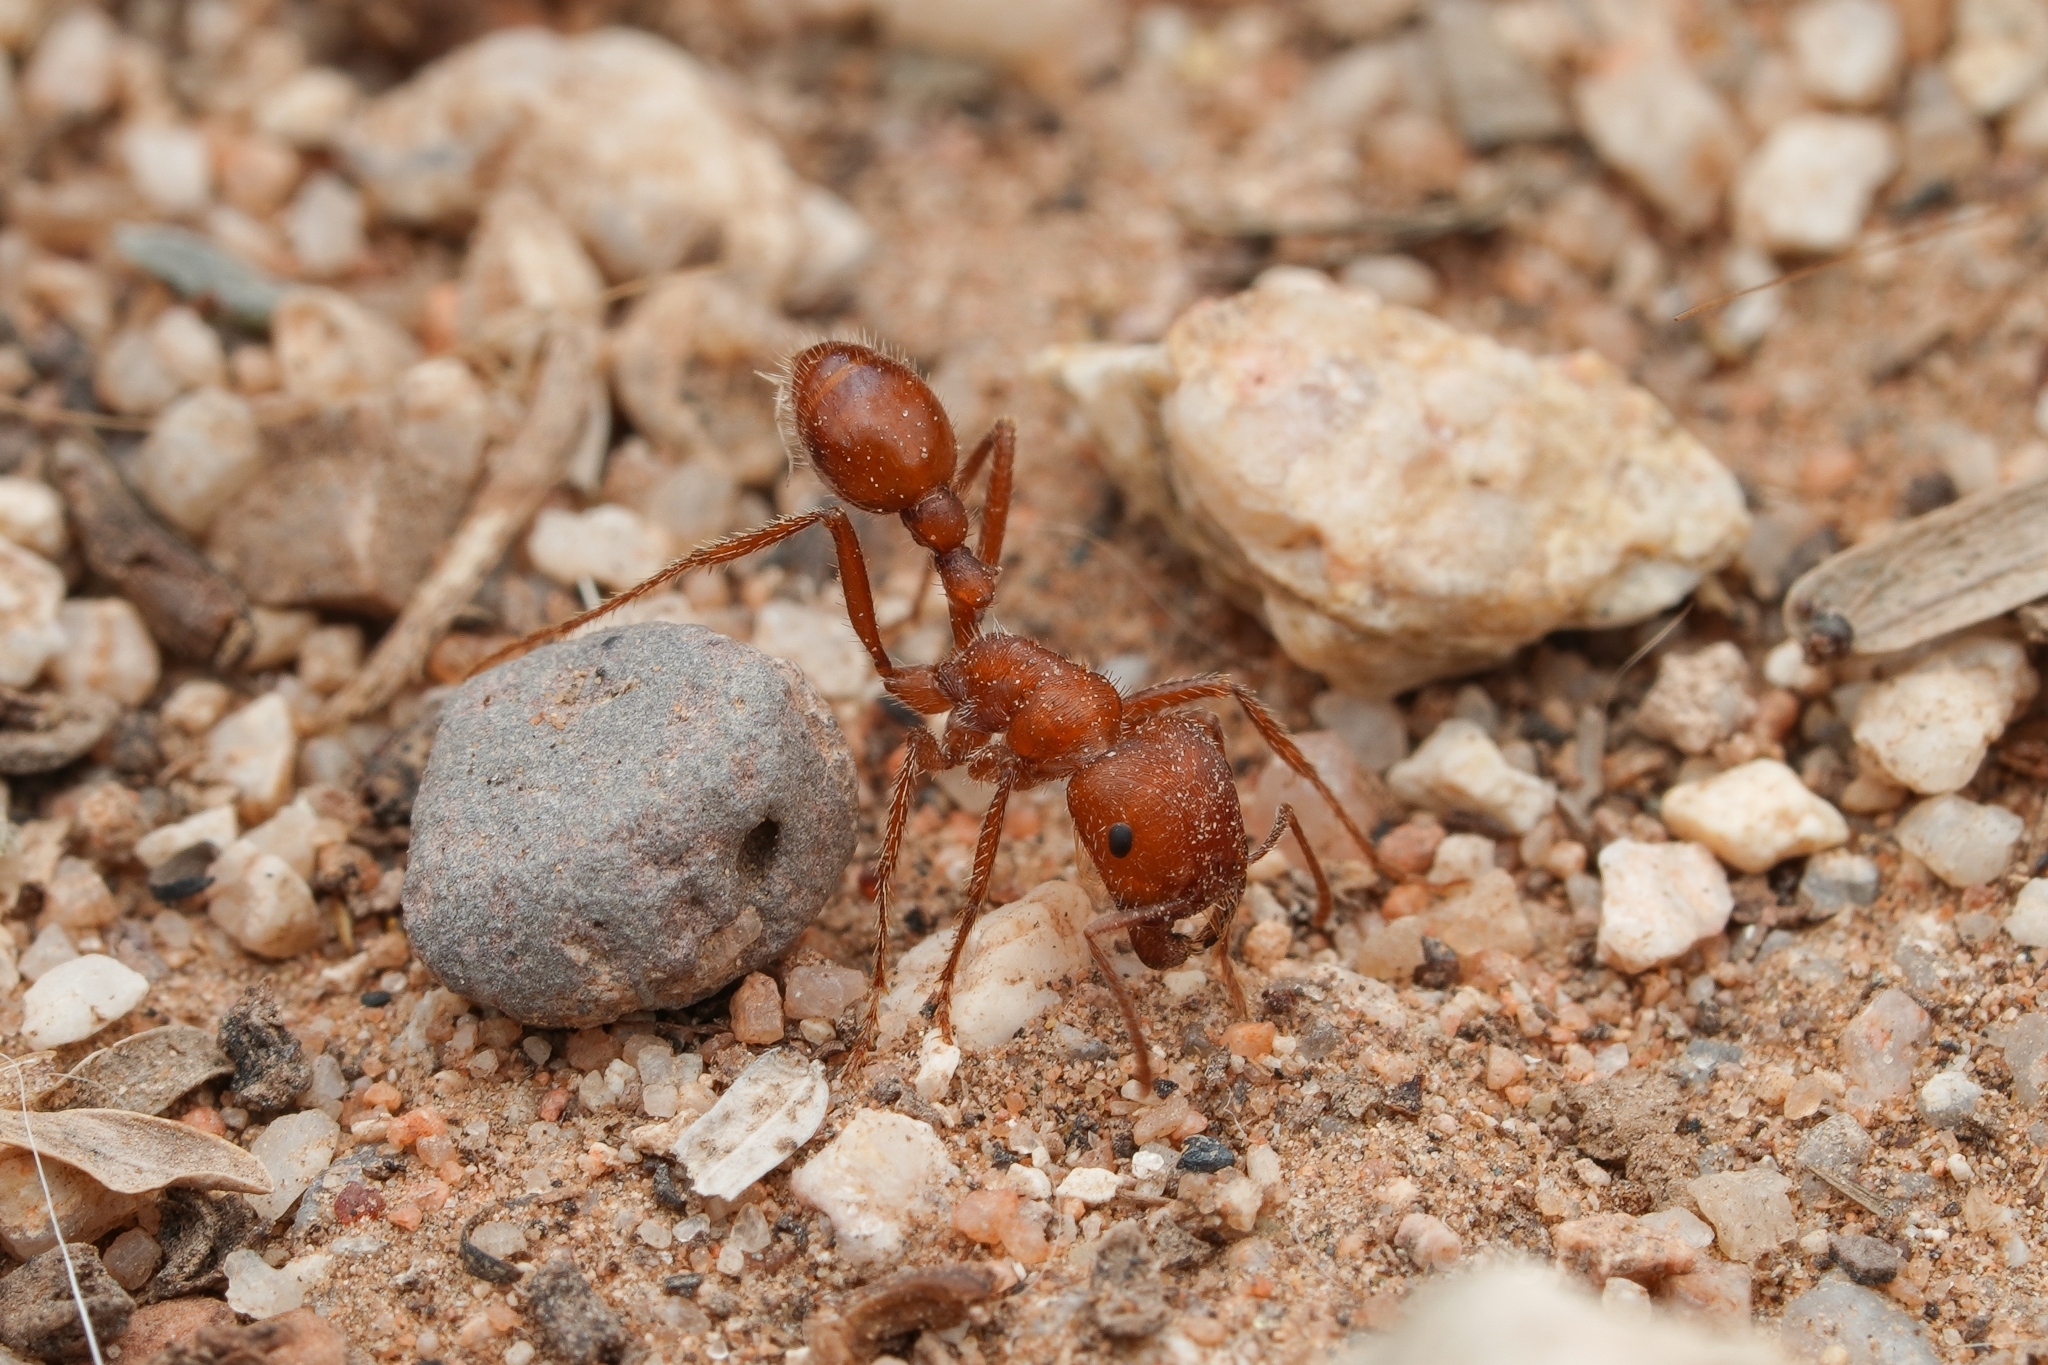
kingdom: Animalia
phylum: Arthropoda
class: Insecta
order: Hymenoptera
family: Formicidae
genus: Pogonomyrmex
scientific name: Pogonomyrmex maricopa
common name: Maricopa harvester ant
